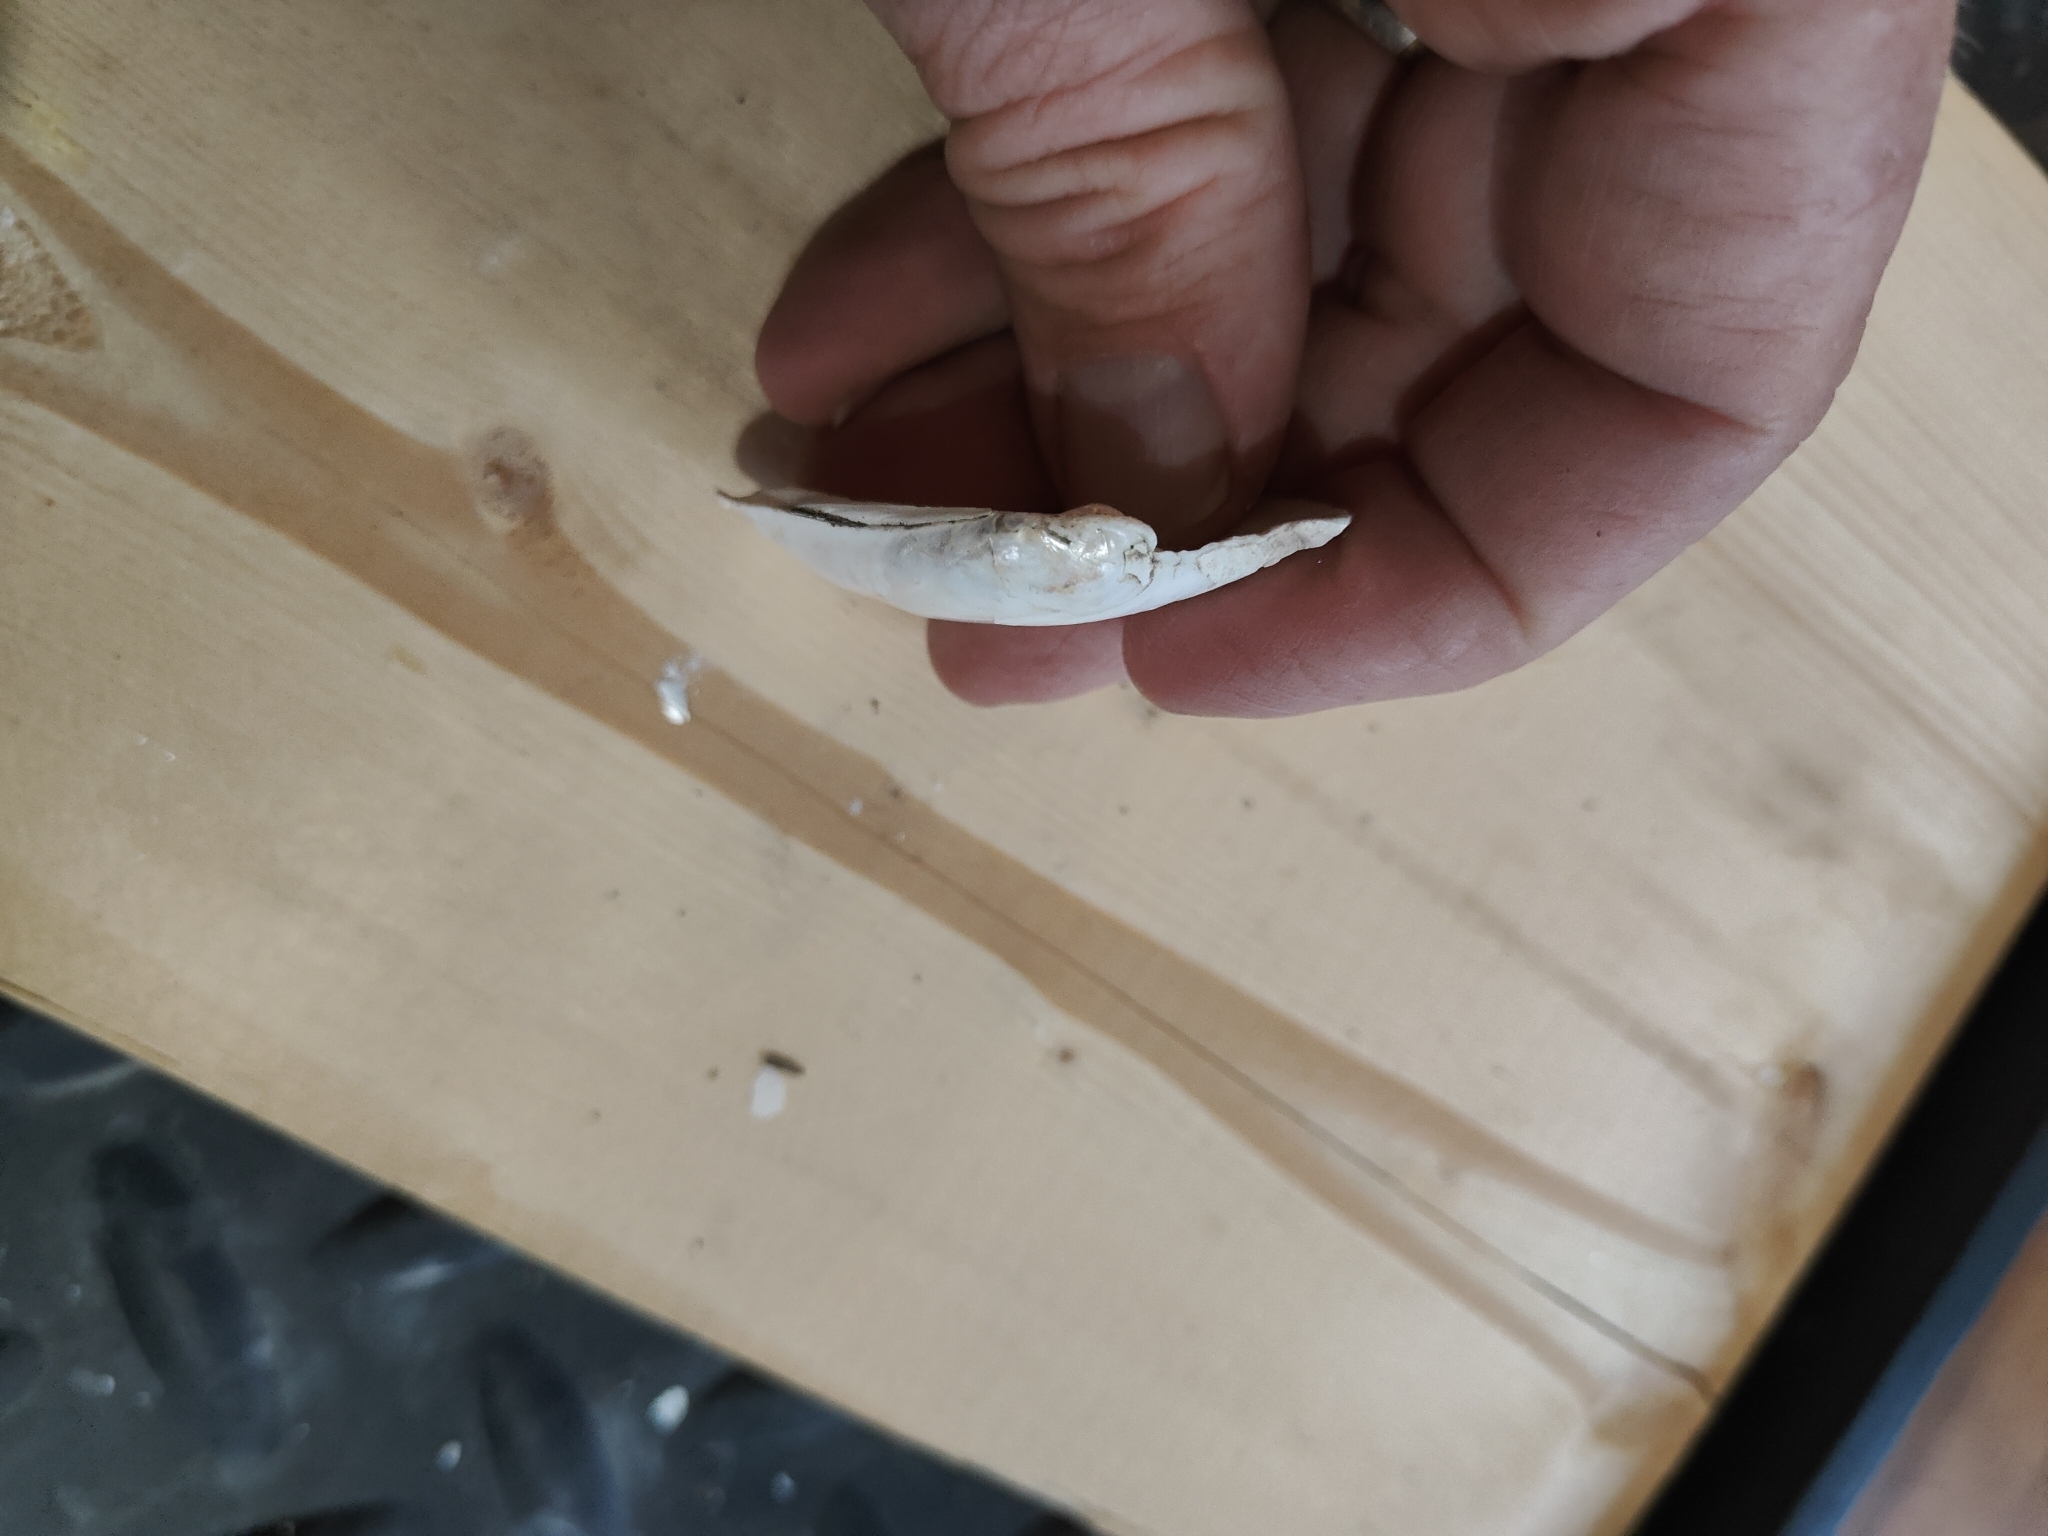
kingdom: Animalia
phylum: Mollusca
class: Bivalvia
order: Unionida
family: Unionidae
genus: Lampsilis
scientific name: Lampsilis siliquoidea
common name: Fatmucket
